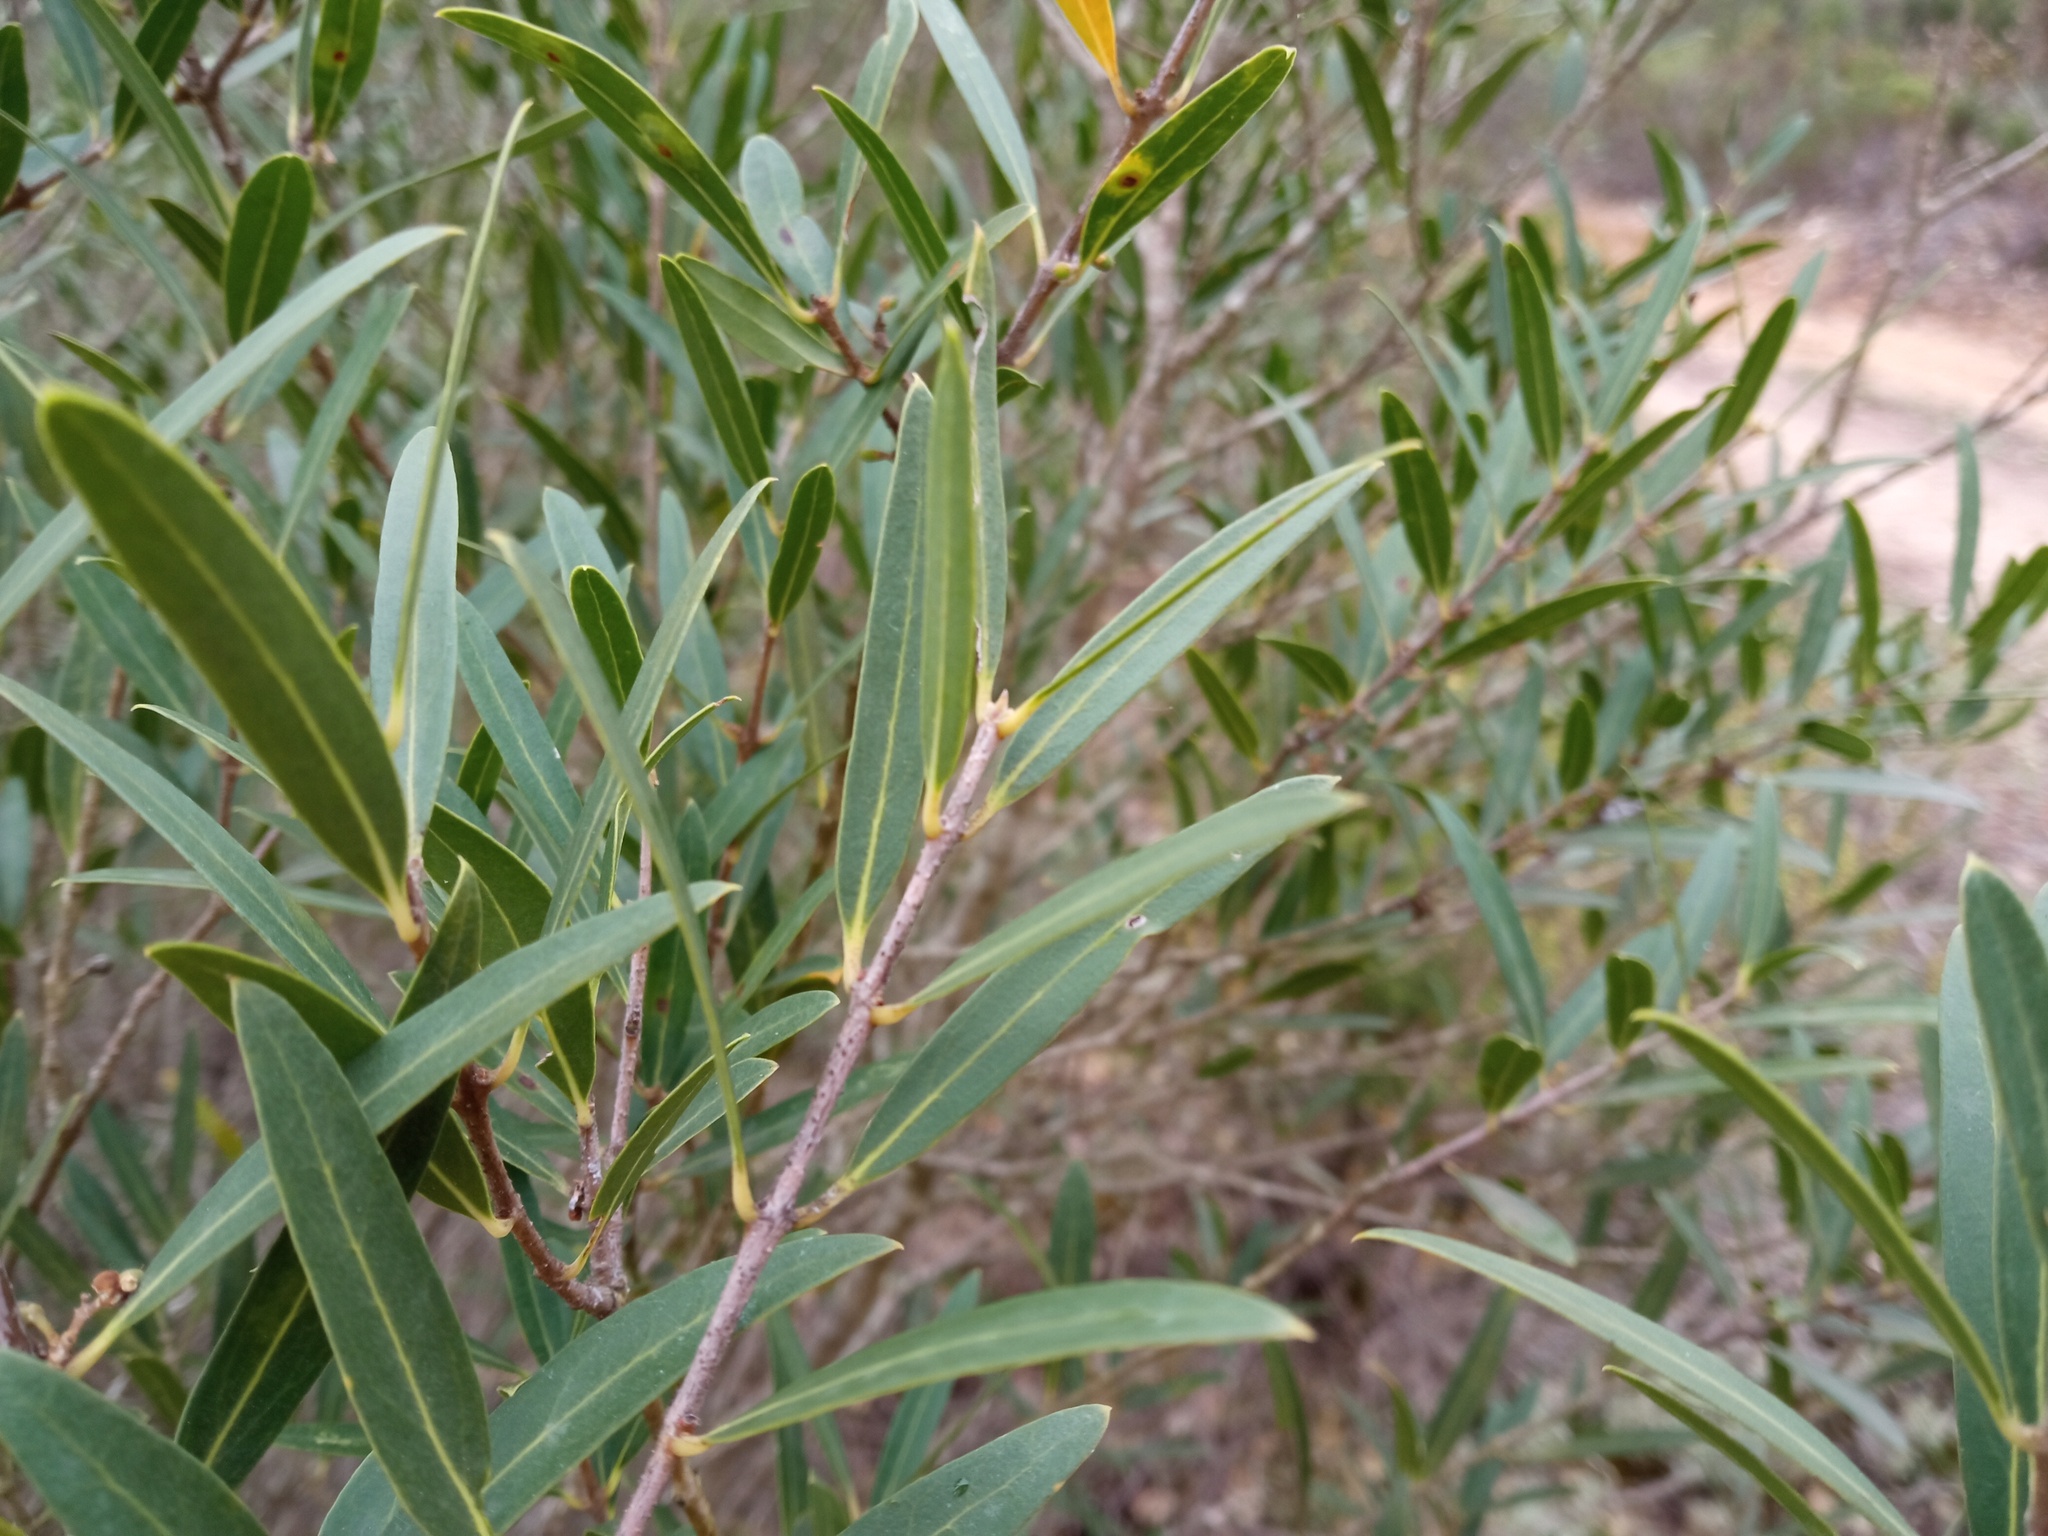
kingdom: Plantae
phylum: Tracheophyta
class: Magnoliopsida
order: Lamiales
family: Oleaceae
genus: Phillyrea
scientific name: Phillyrea angustifolia
